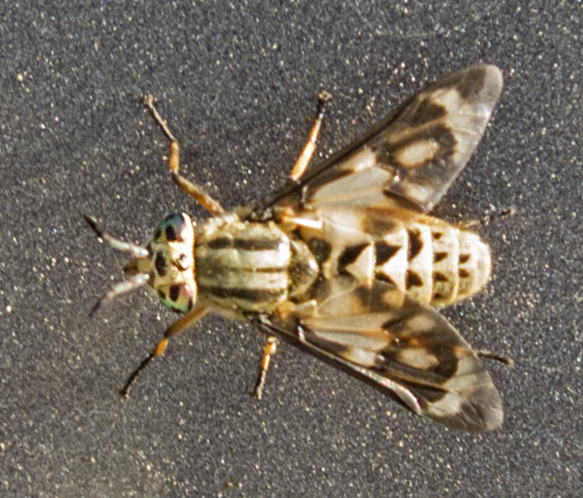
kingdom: Animalia
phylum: Arthropoda
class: Insecta
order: Diptera
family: Tabanidae
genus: Chrysops
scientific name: Chrysops italicus
